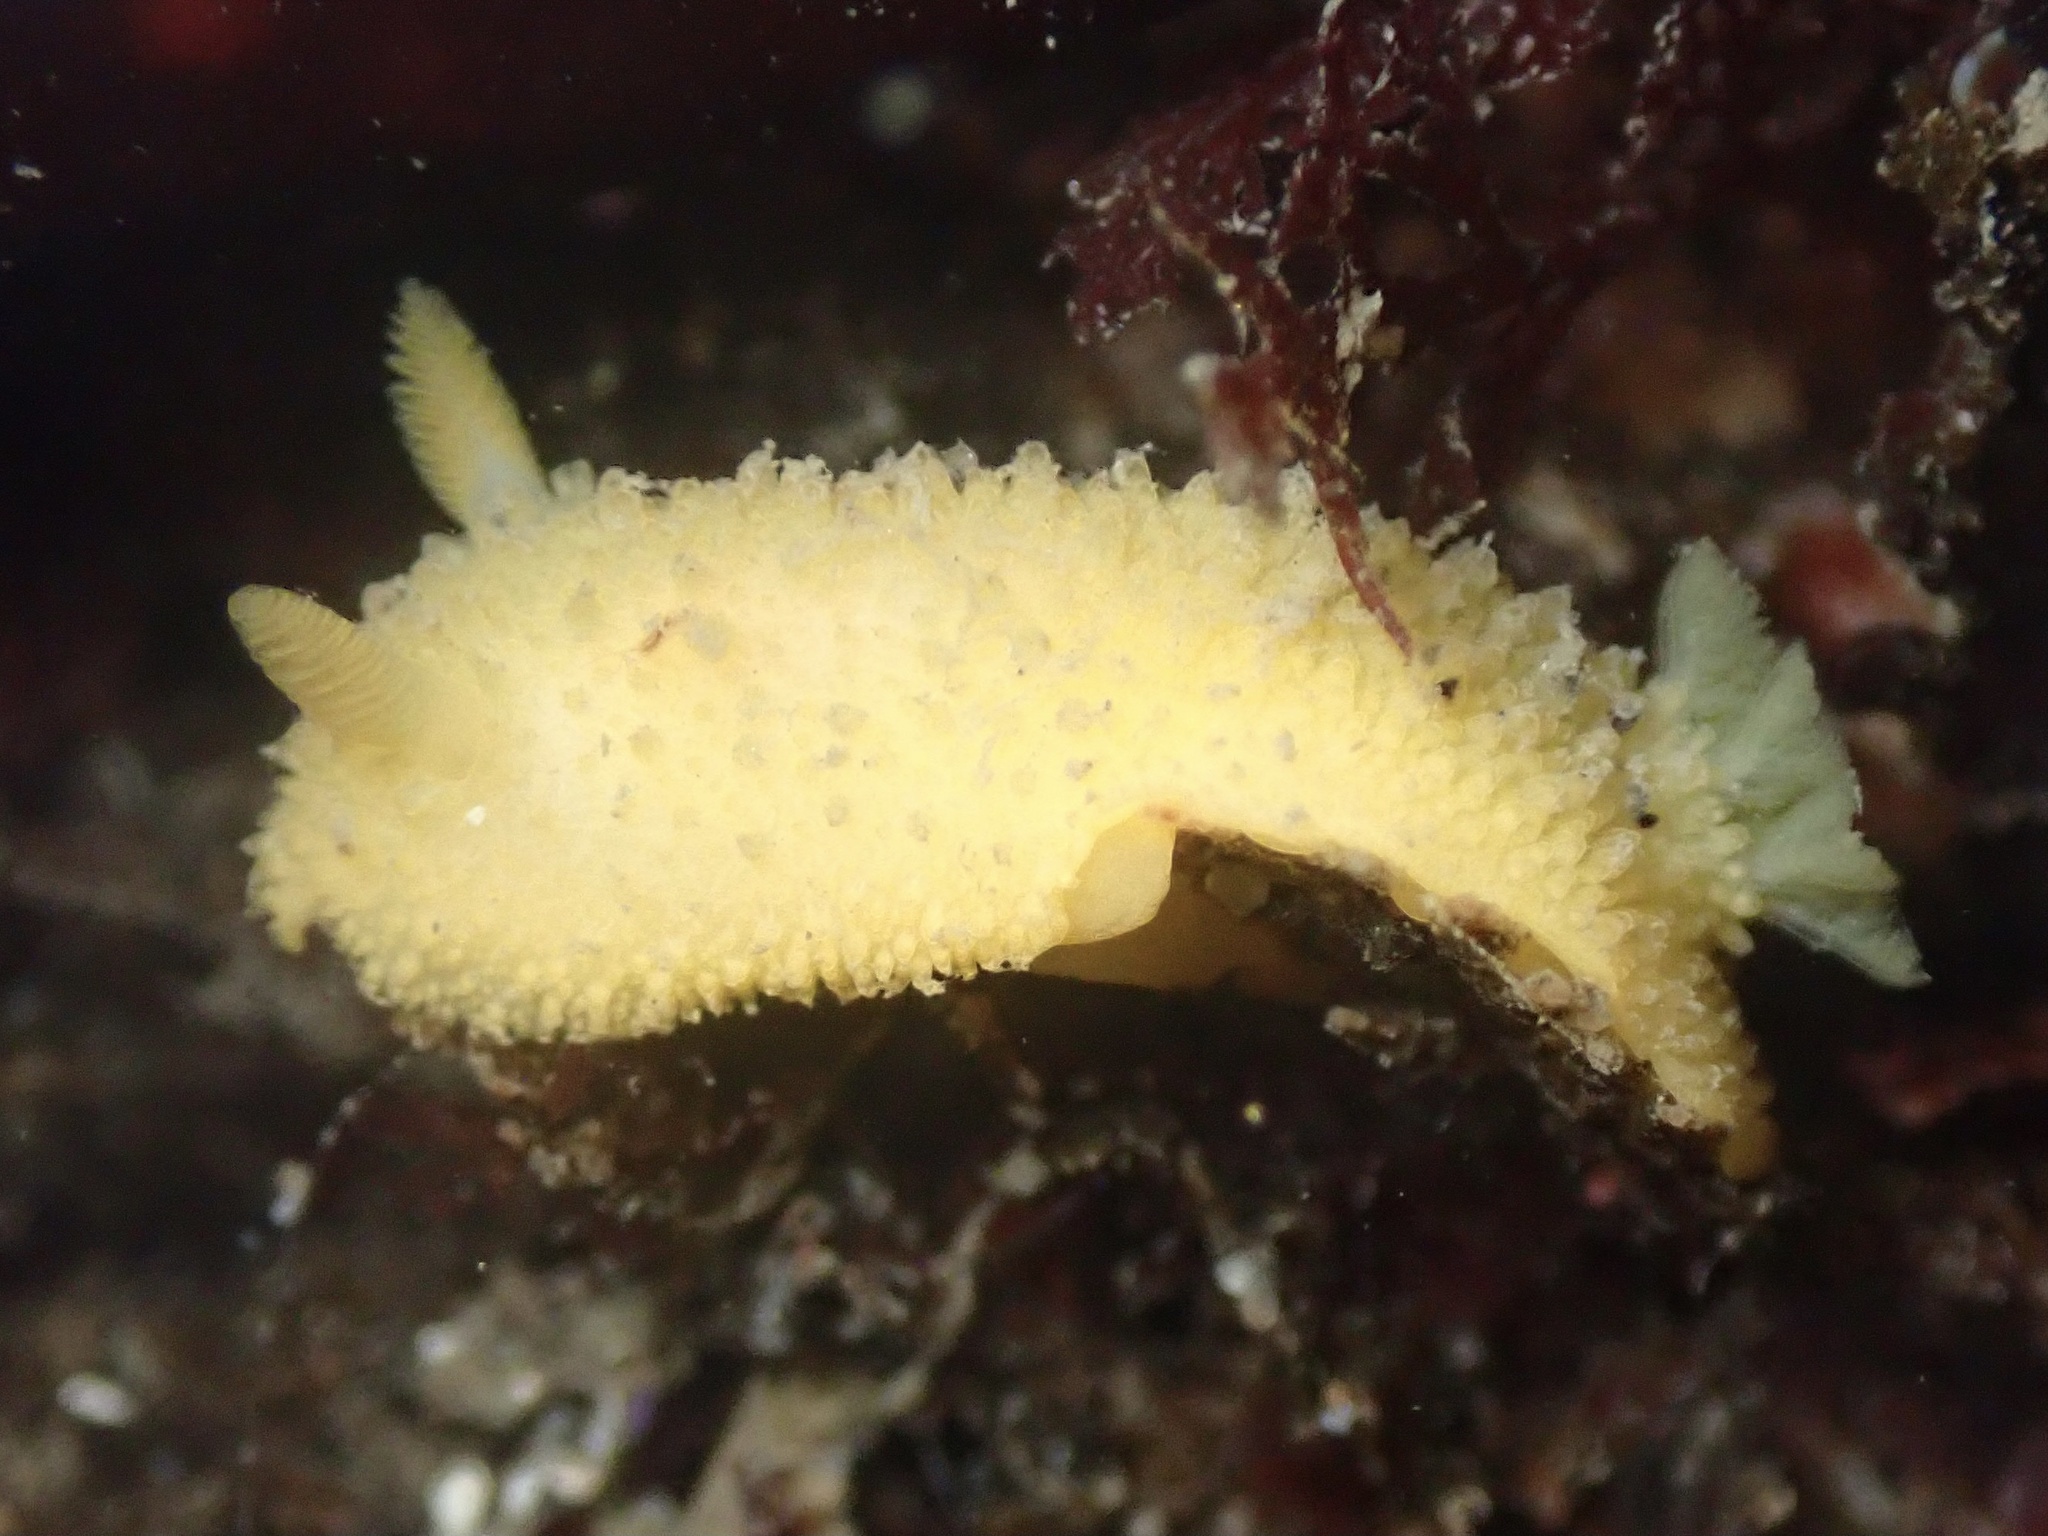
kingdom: Animalia
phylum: Mollusca
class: Gastropoda
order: Nudibranchia
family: Dorididae
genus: Doris
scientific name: Doris montereyensis
